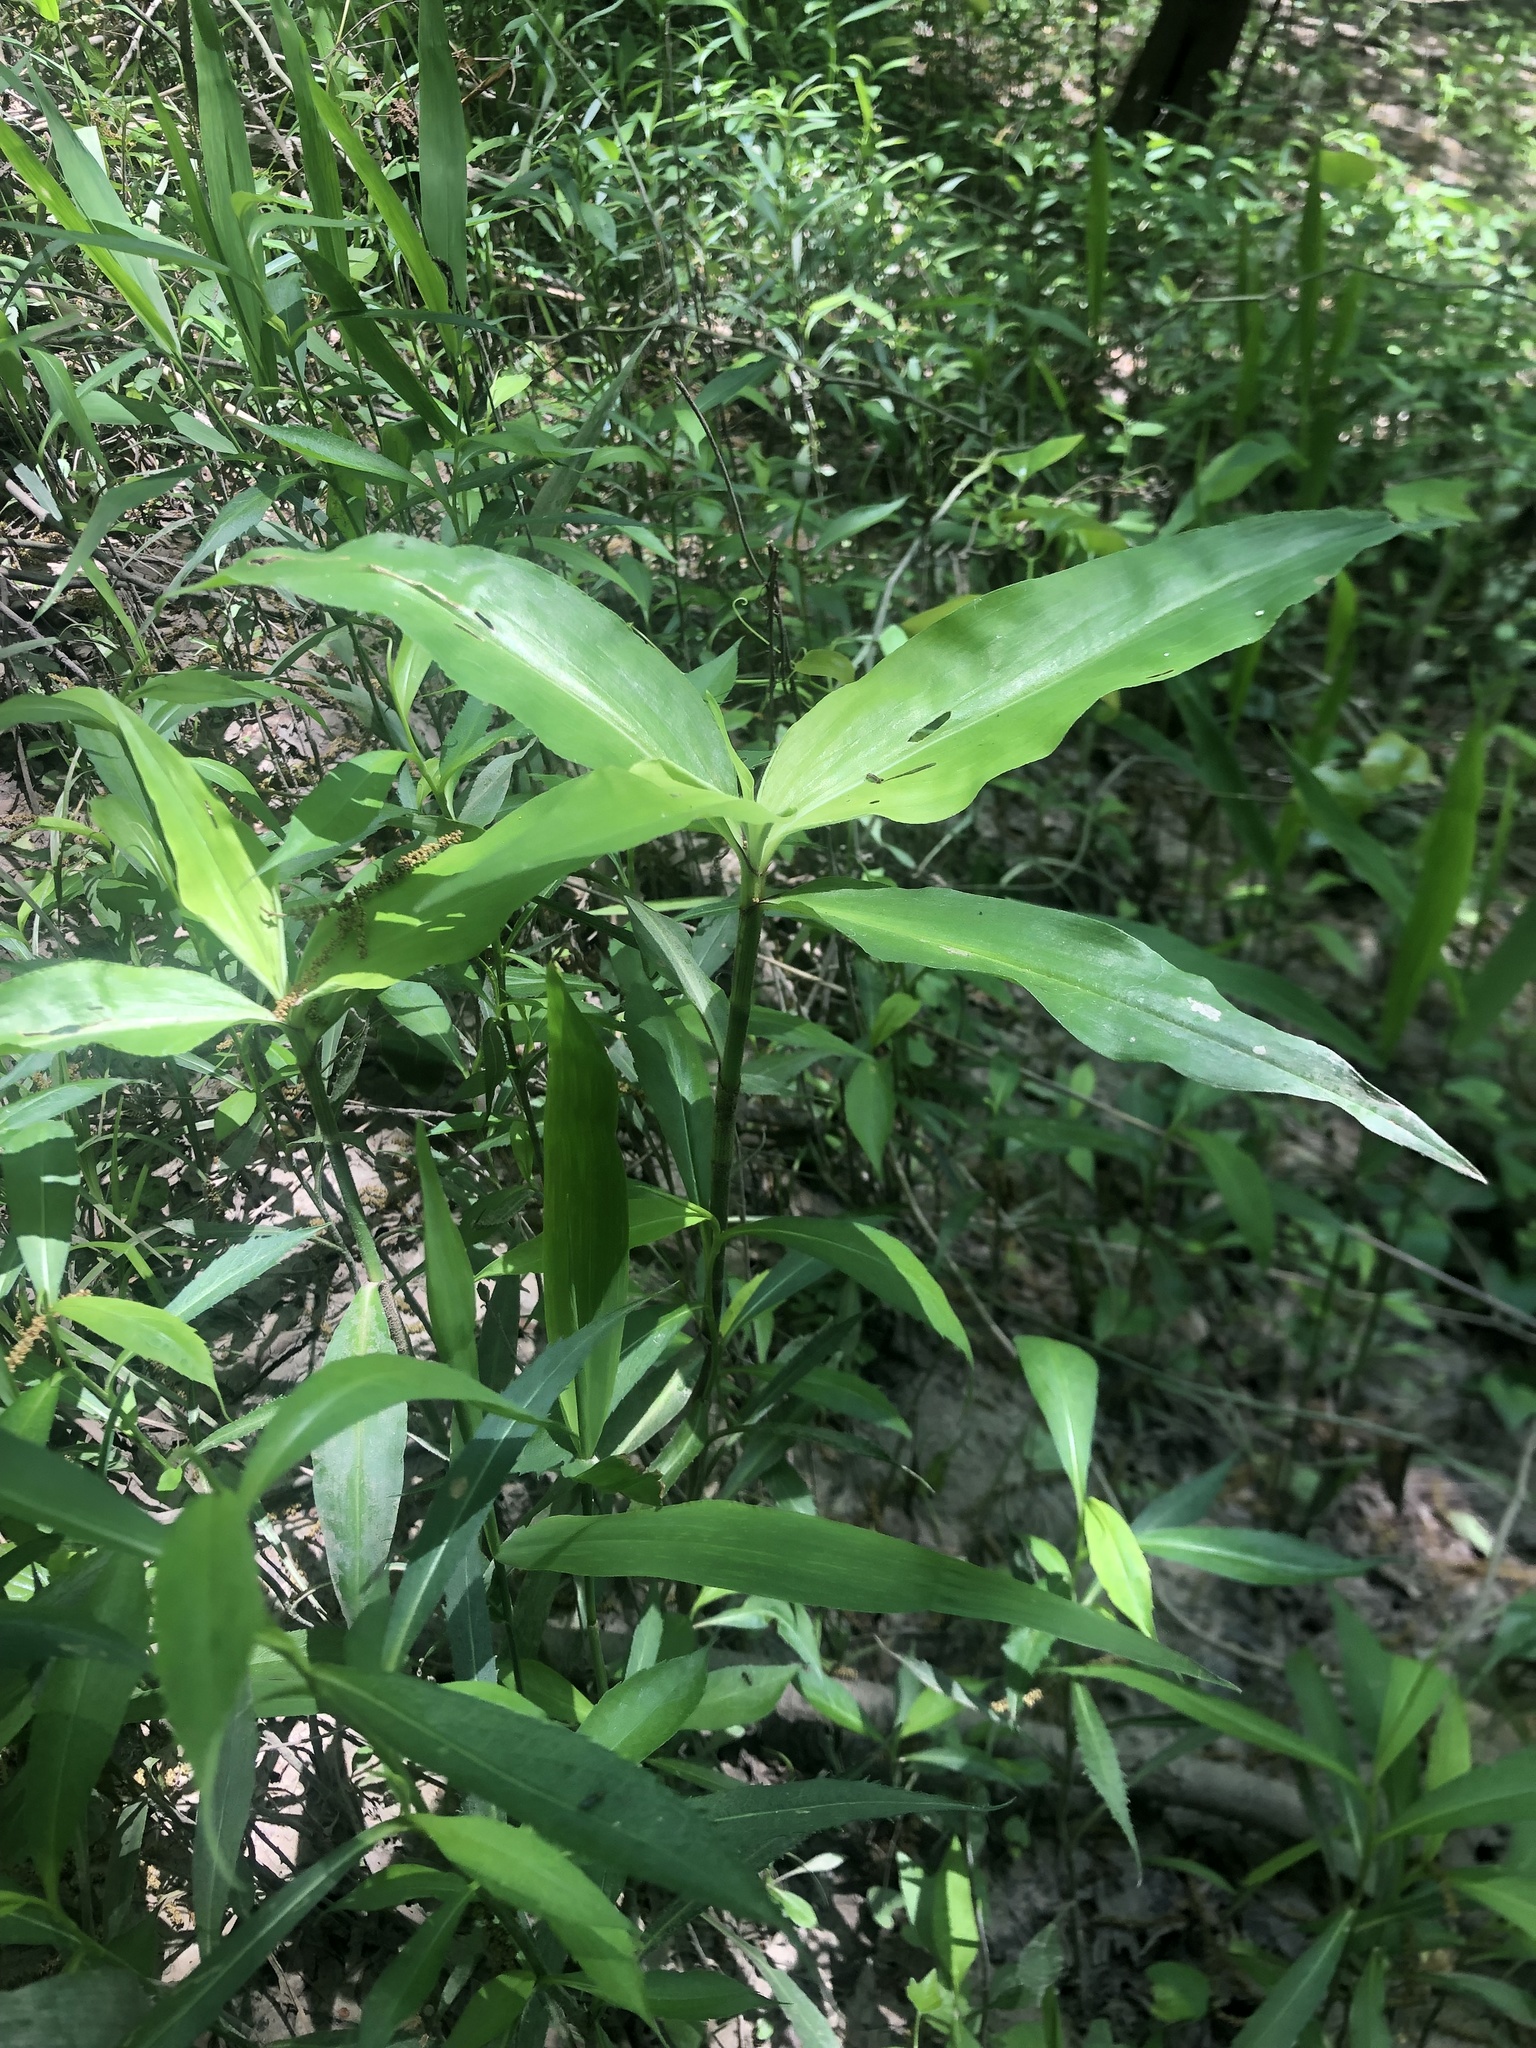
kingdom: Plantae
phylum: Tracheophyta
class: Liliopsida
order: Commelinales
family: Commelinaceae
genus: Commelina
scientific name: Commelina virginica
